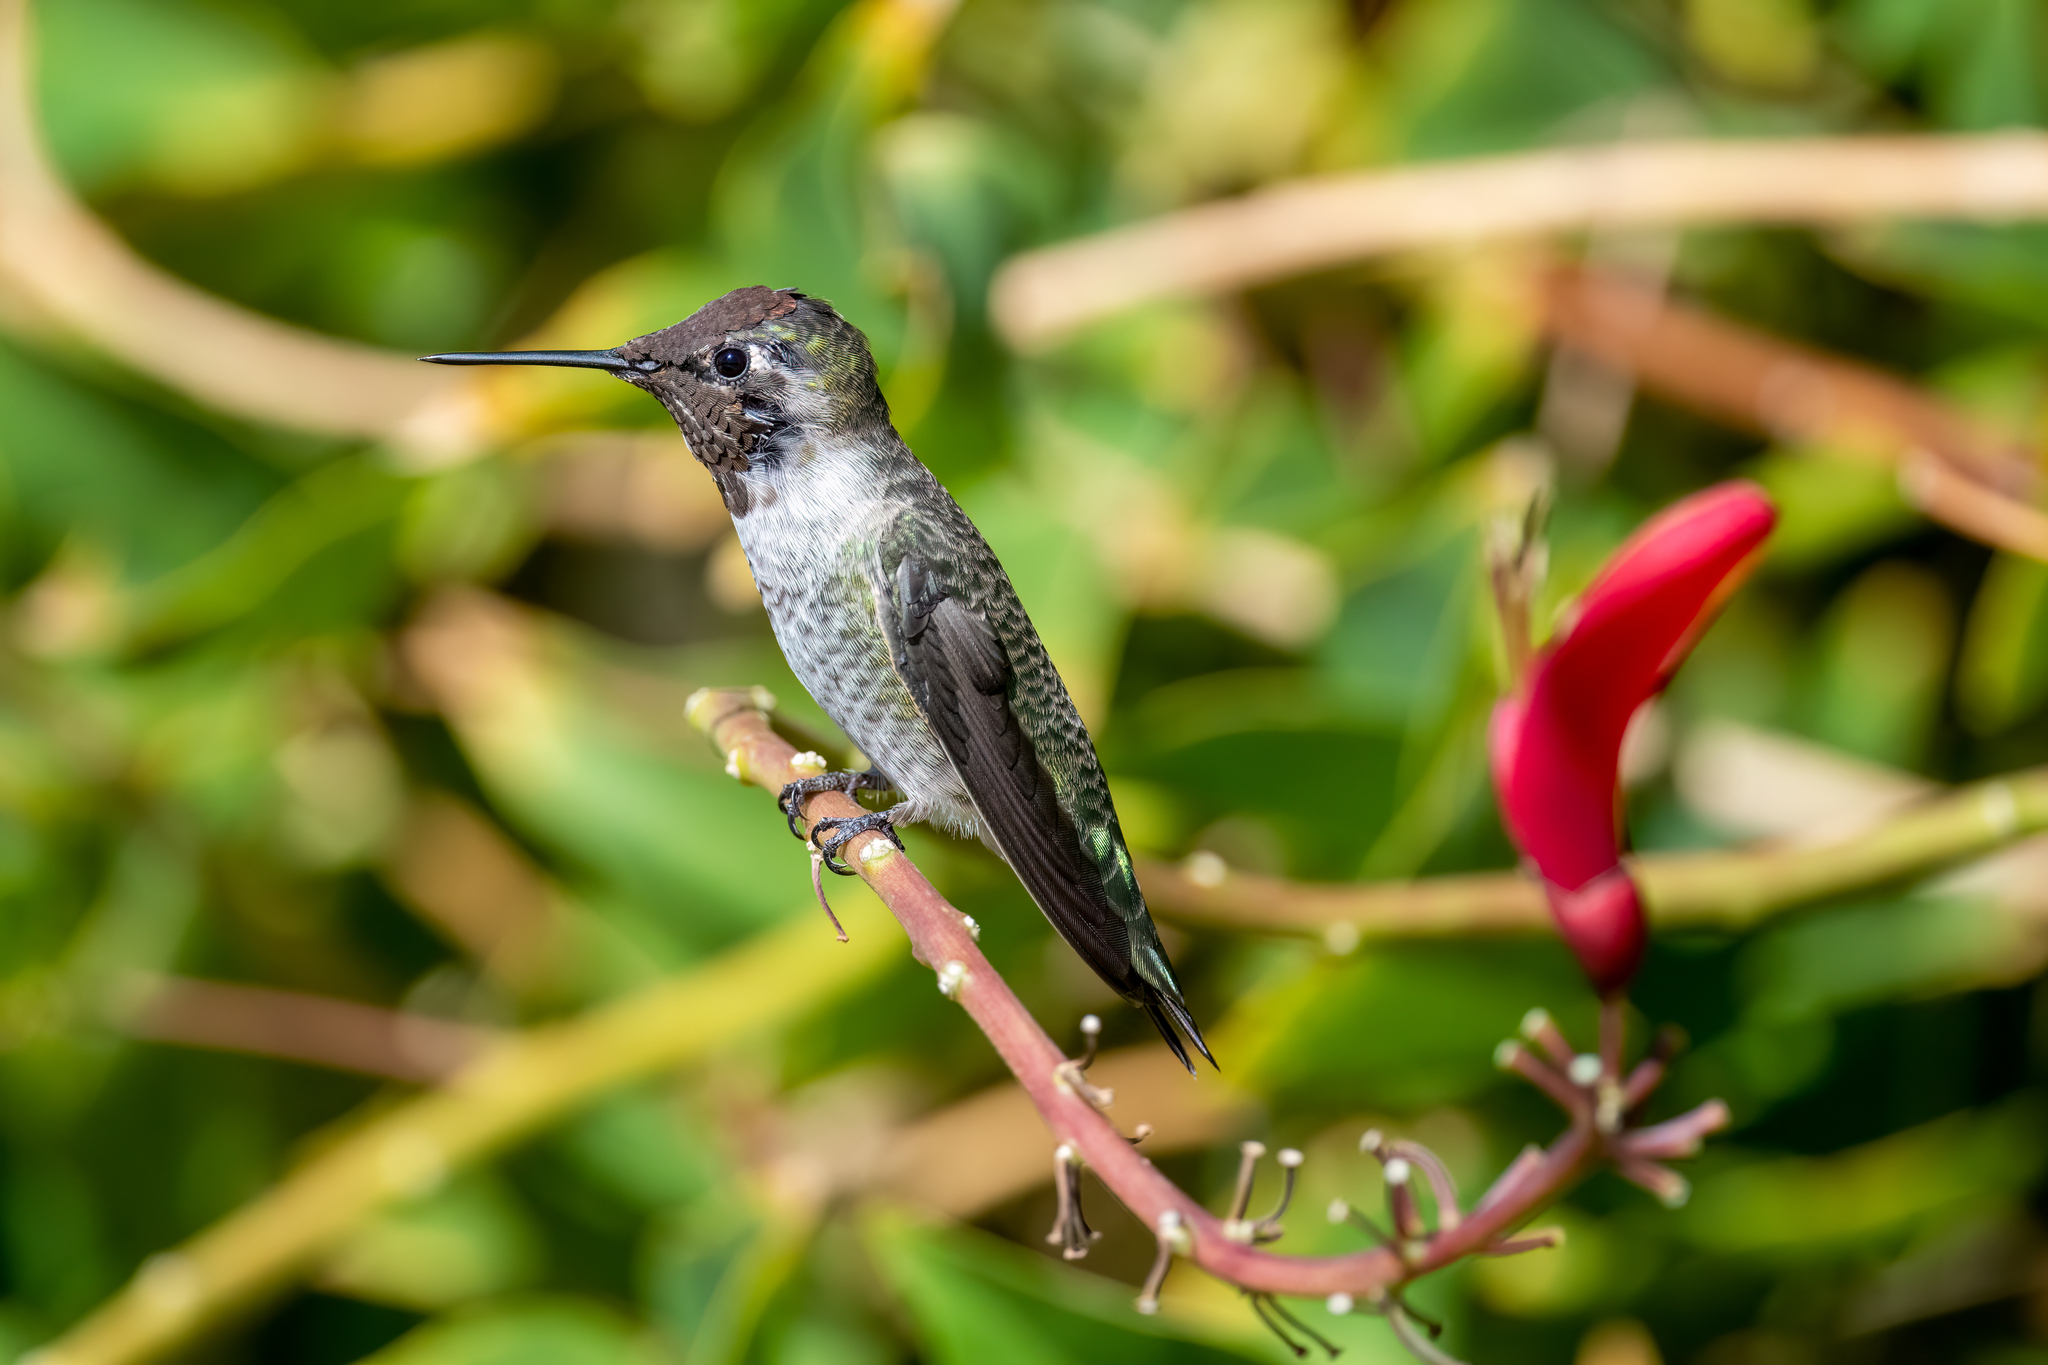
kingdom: Animalia
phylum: Chordata
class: Aves
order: Apodiformes
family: Trochilidae
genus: Calypte
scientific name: Calypte anna
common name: Anna's hummingbird
